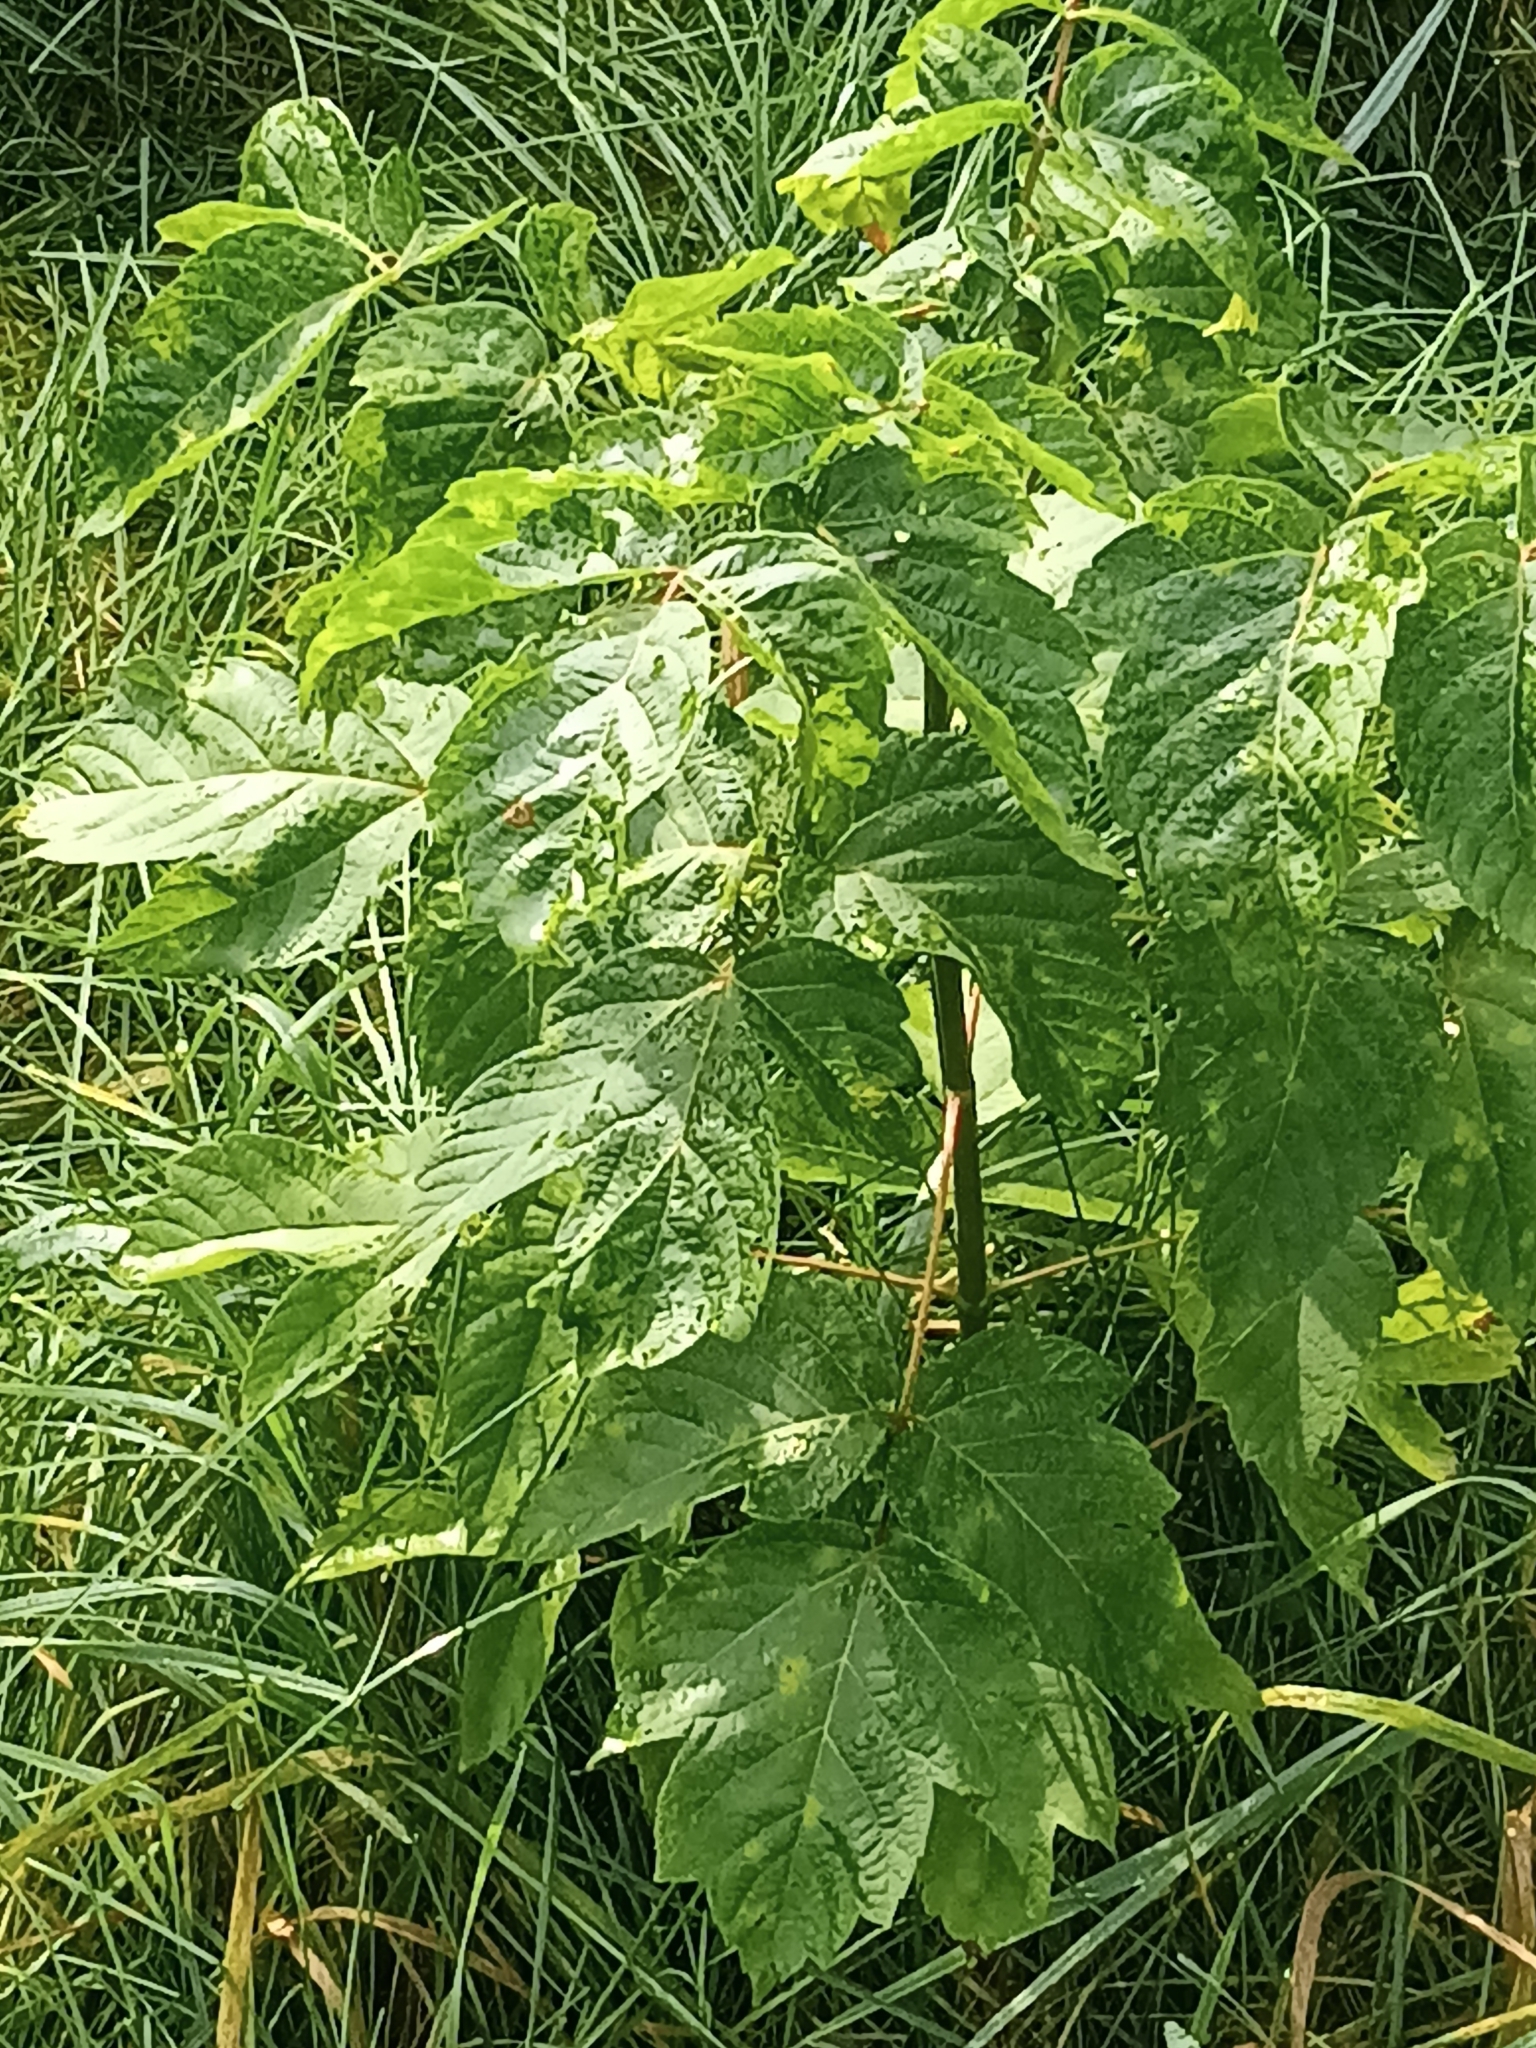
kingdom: Plantae
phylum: Tracheophyta
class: Magnoliopsida
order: Sapindales
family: Sapindaceae
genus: Acer
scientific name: Acer negundo
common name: Ashleaf maple
